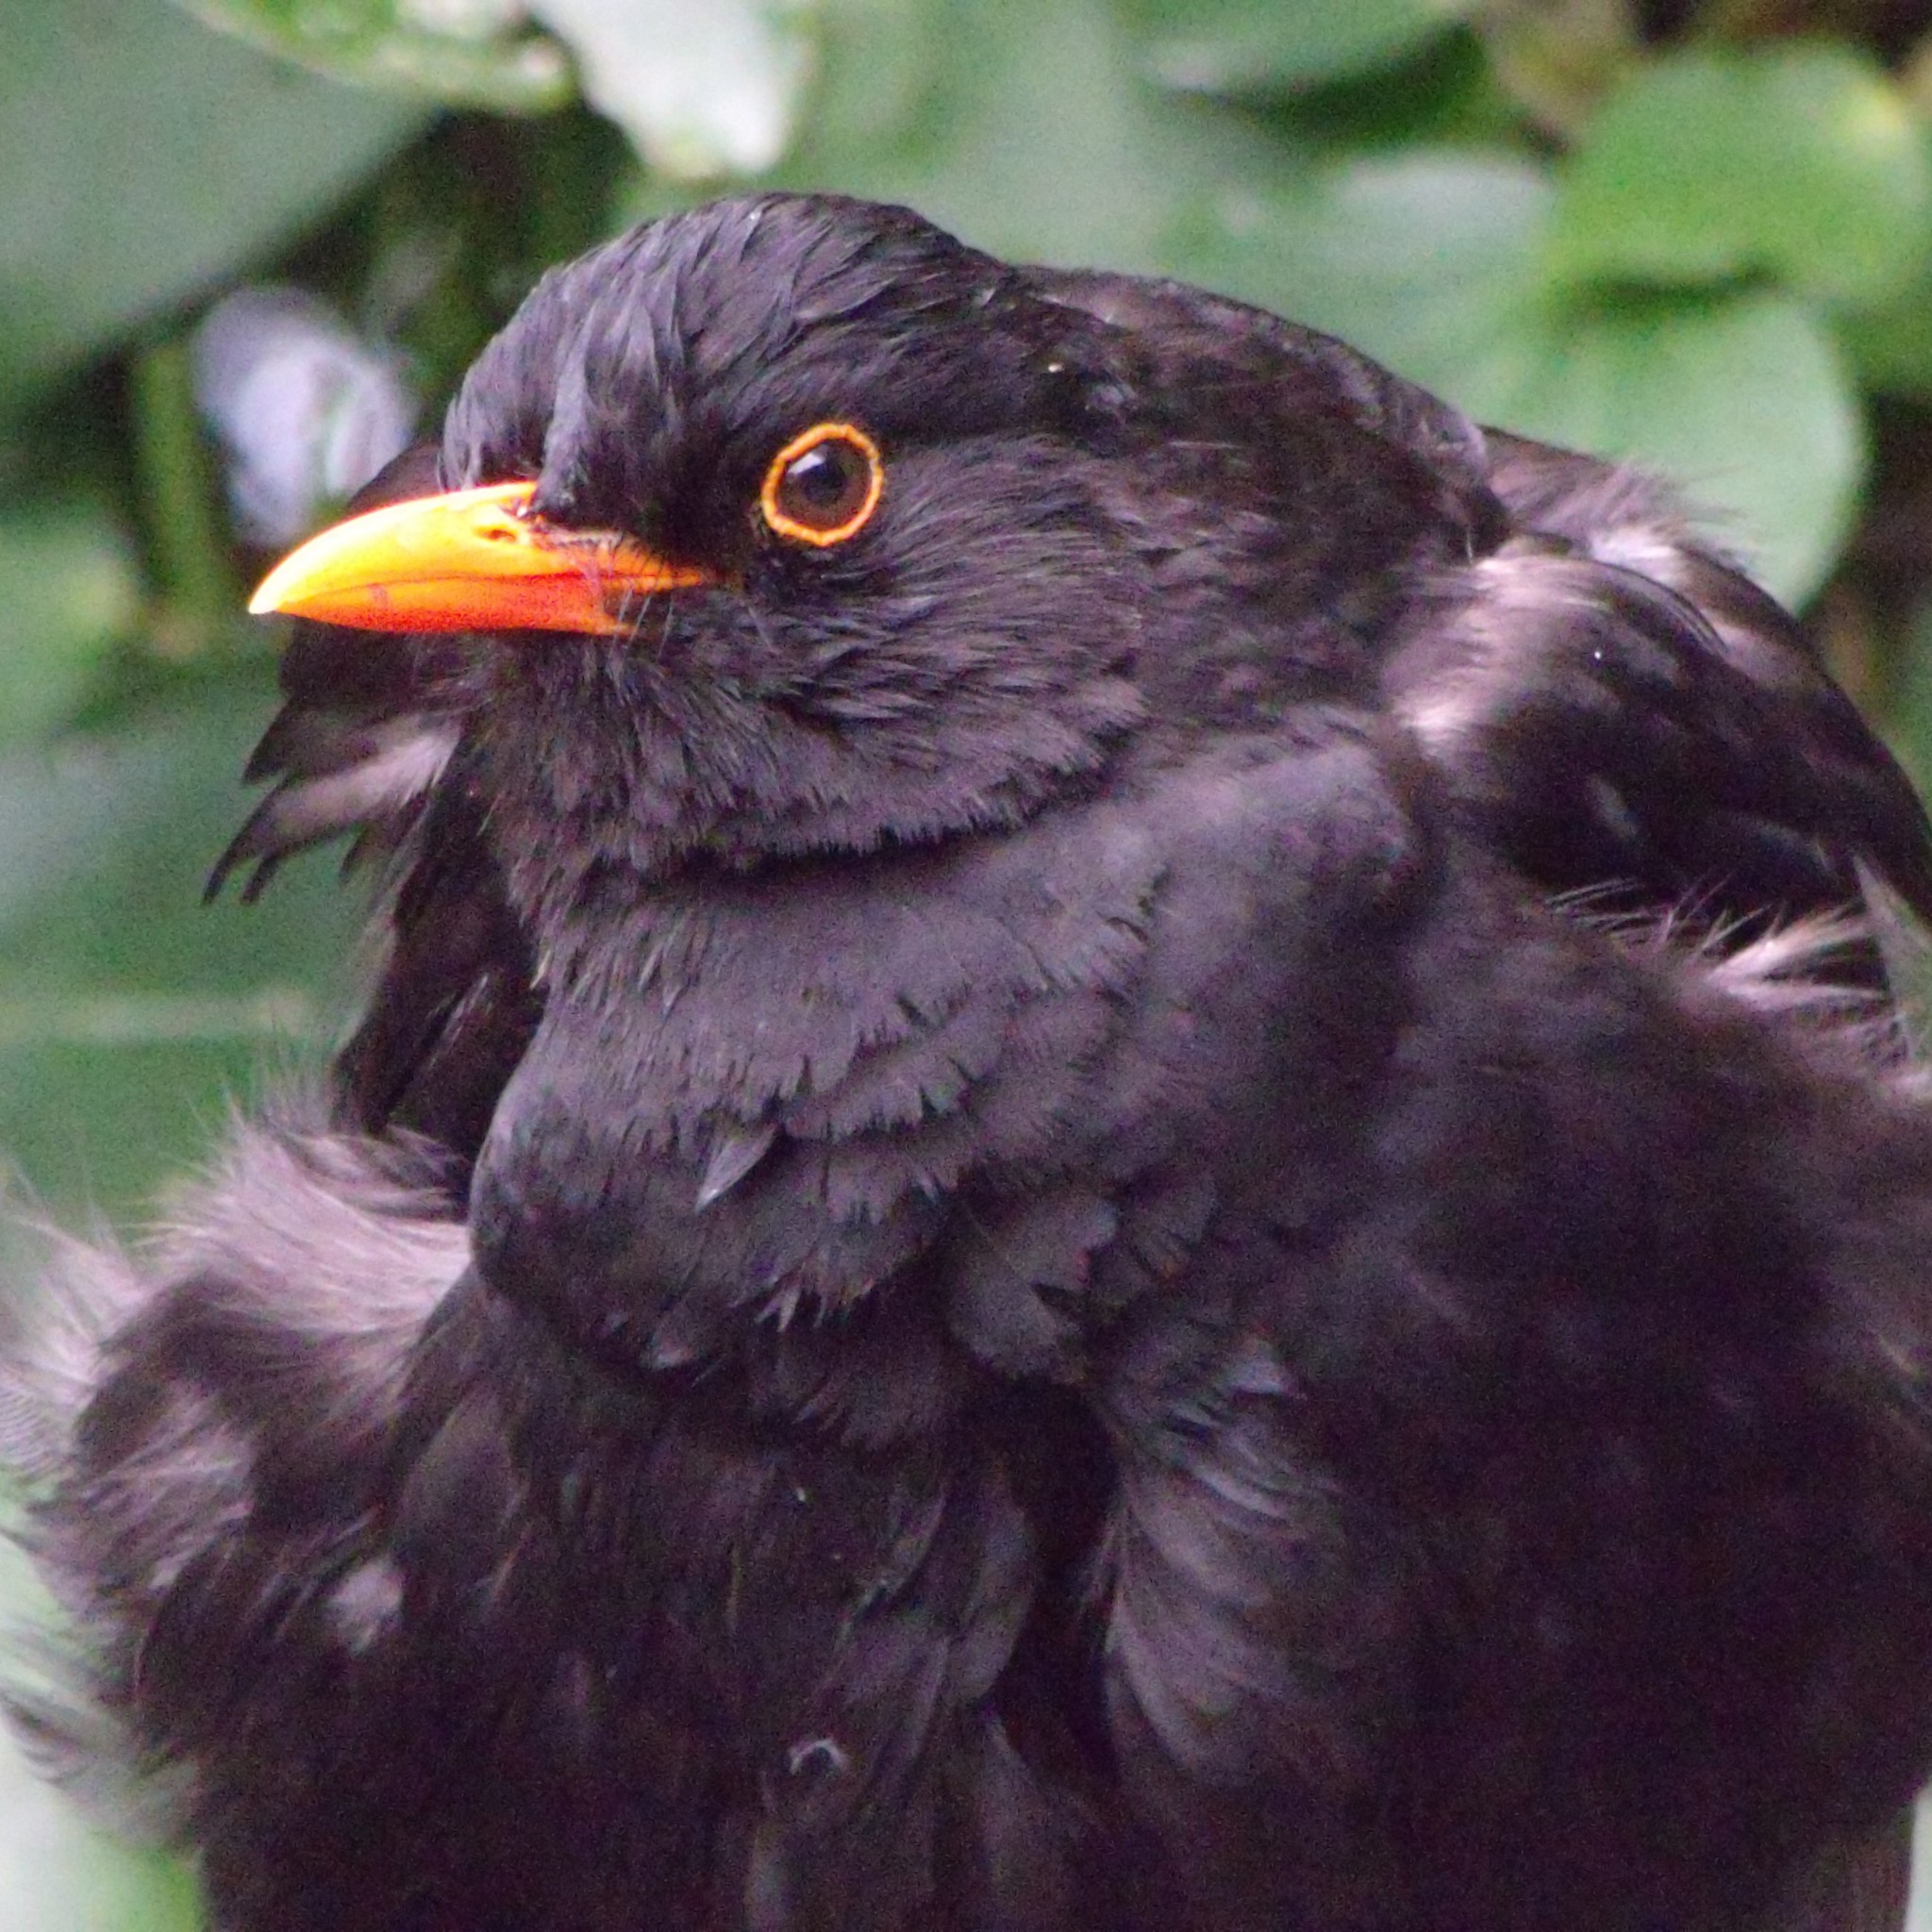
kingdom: Animalia
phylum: Chordata
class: Aves
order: Passeriformes
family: Turdidae
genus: Turdus
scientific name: Turdus merula
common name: Common blackbird
